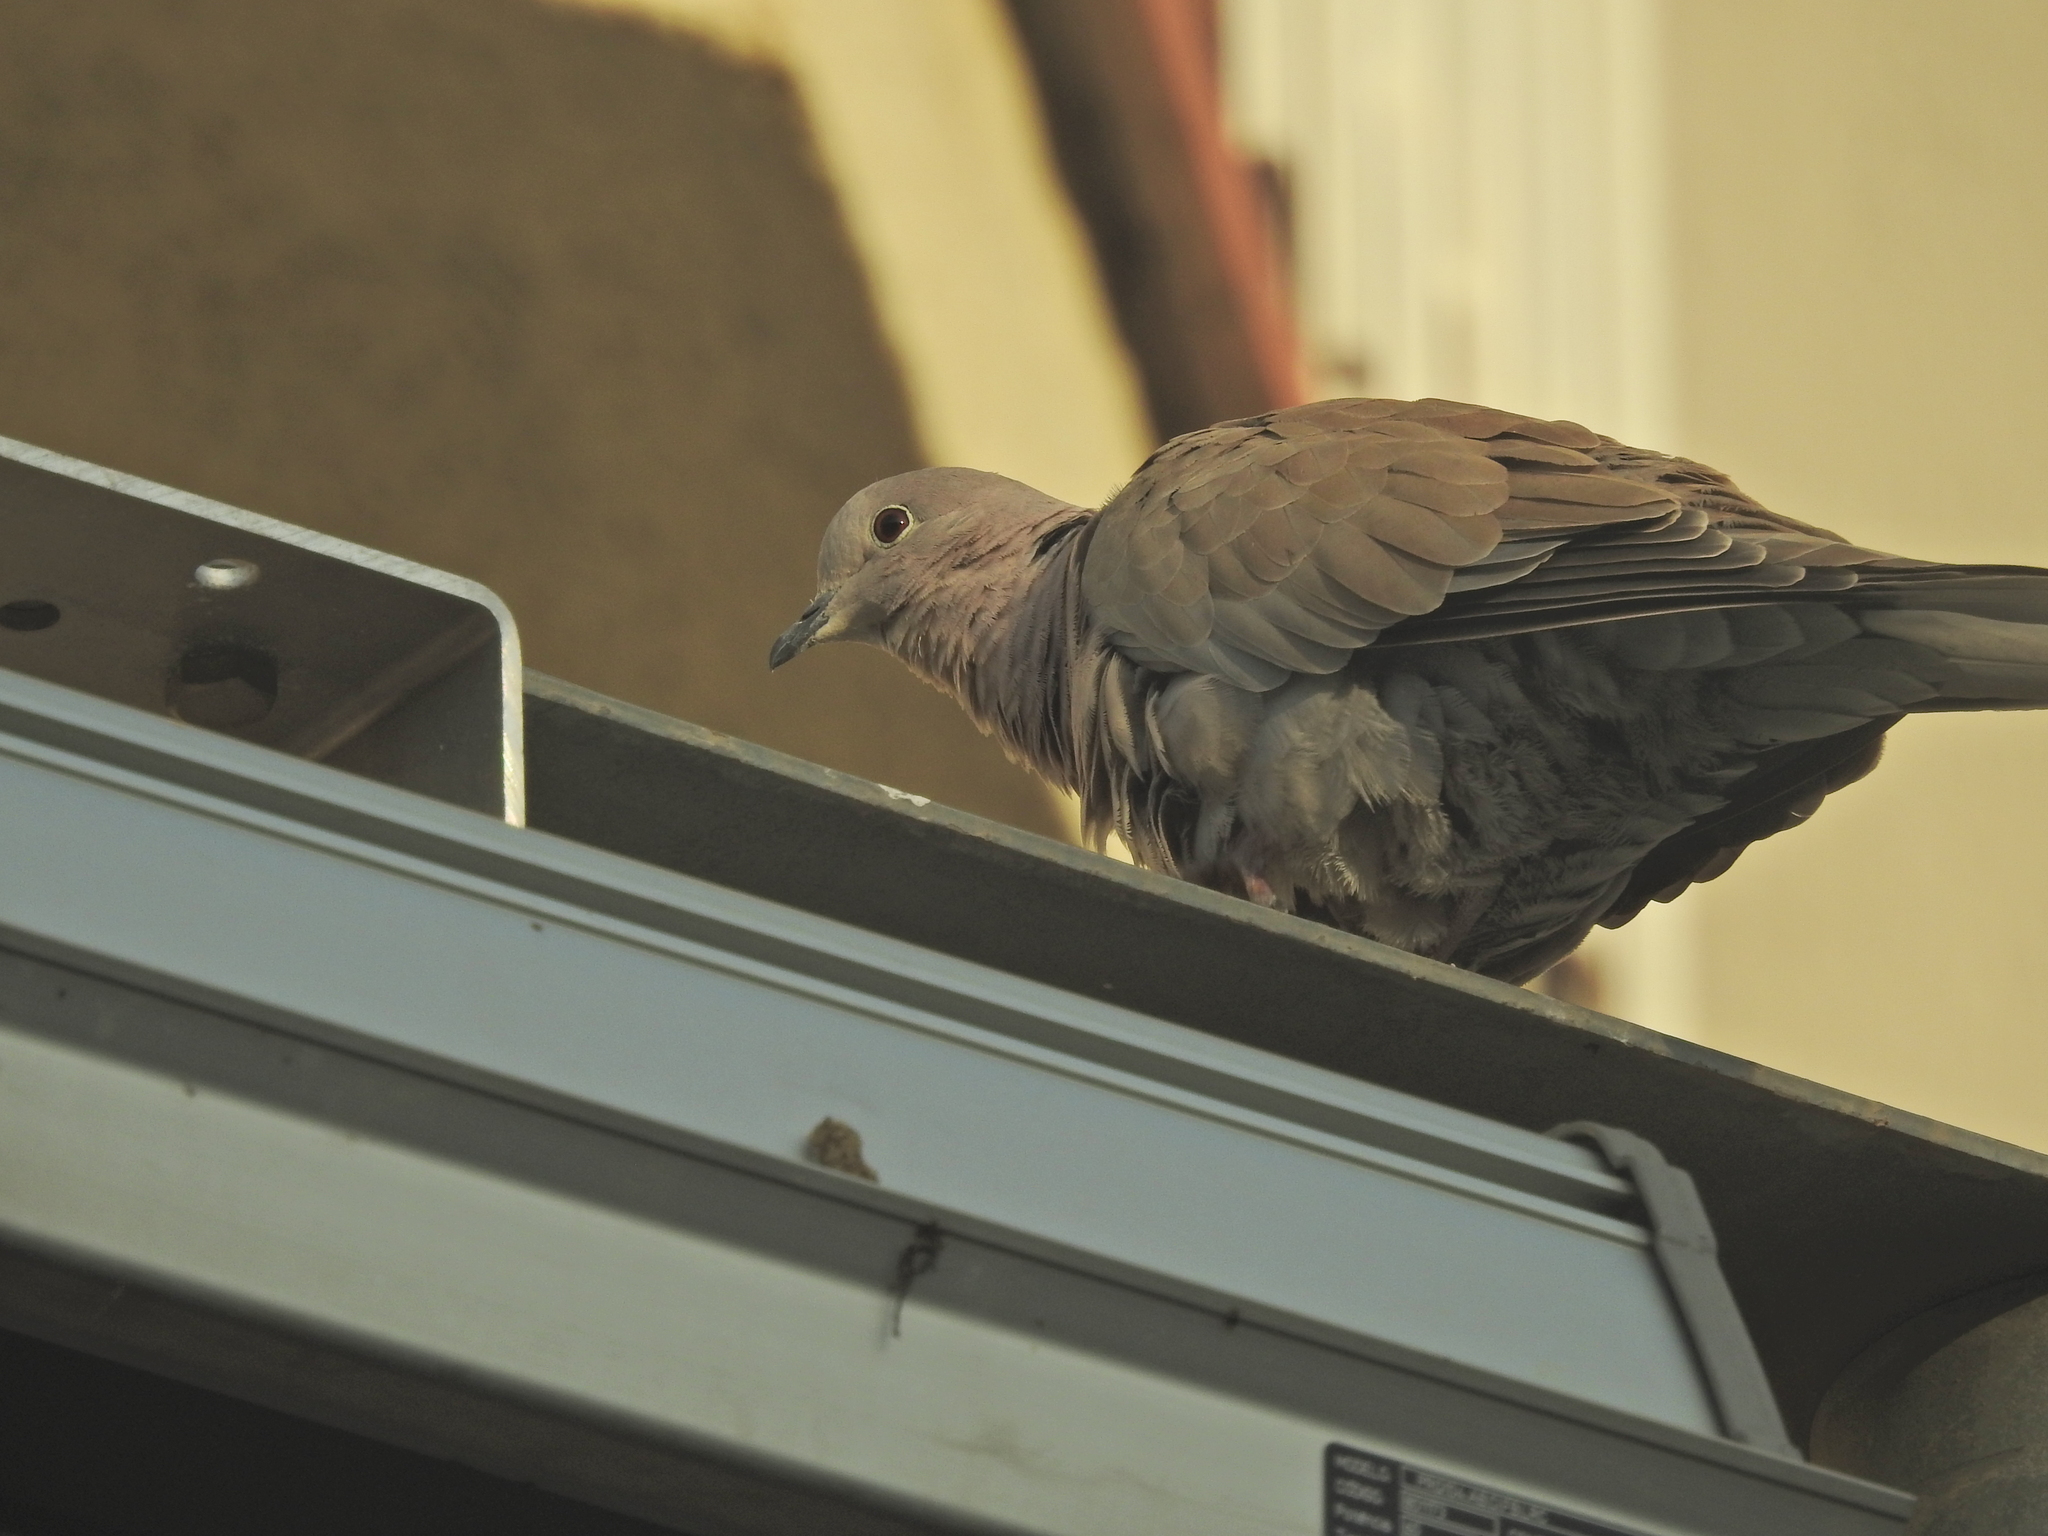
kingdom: Animalia
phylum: Chordata
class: Aves
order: Columbiformes
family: Columbidae
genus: Streptopelia
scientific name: Streptopelia decaocto
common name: Eurasian collared dove
